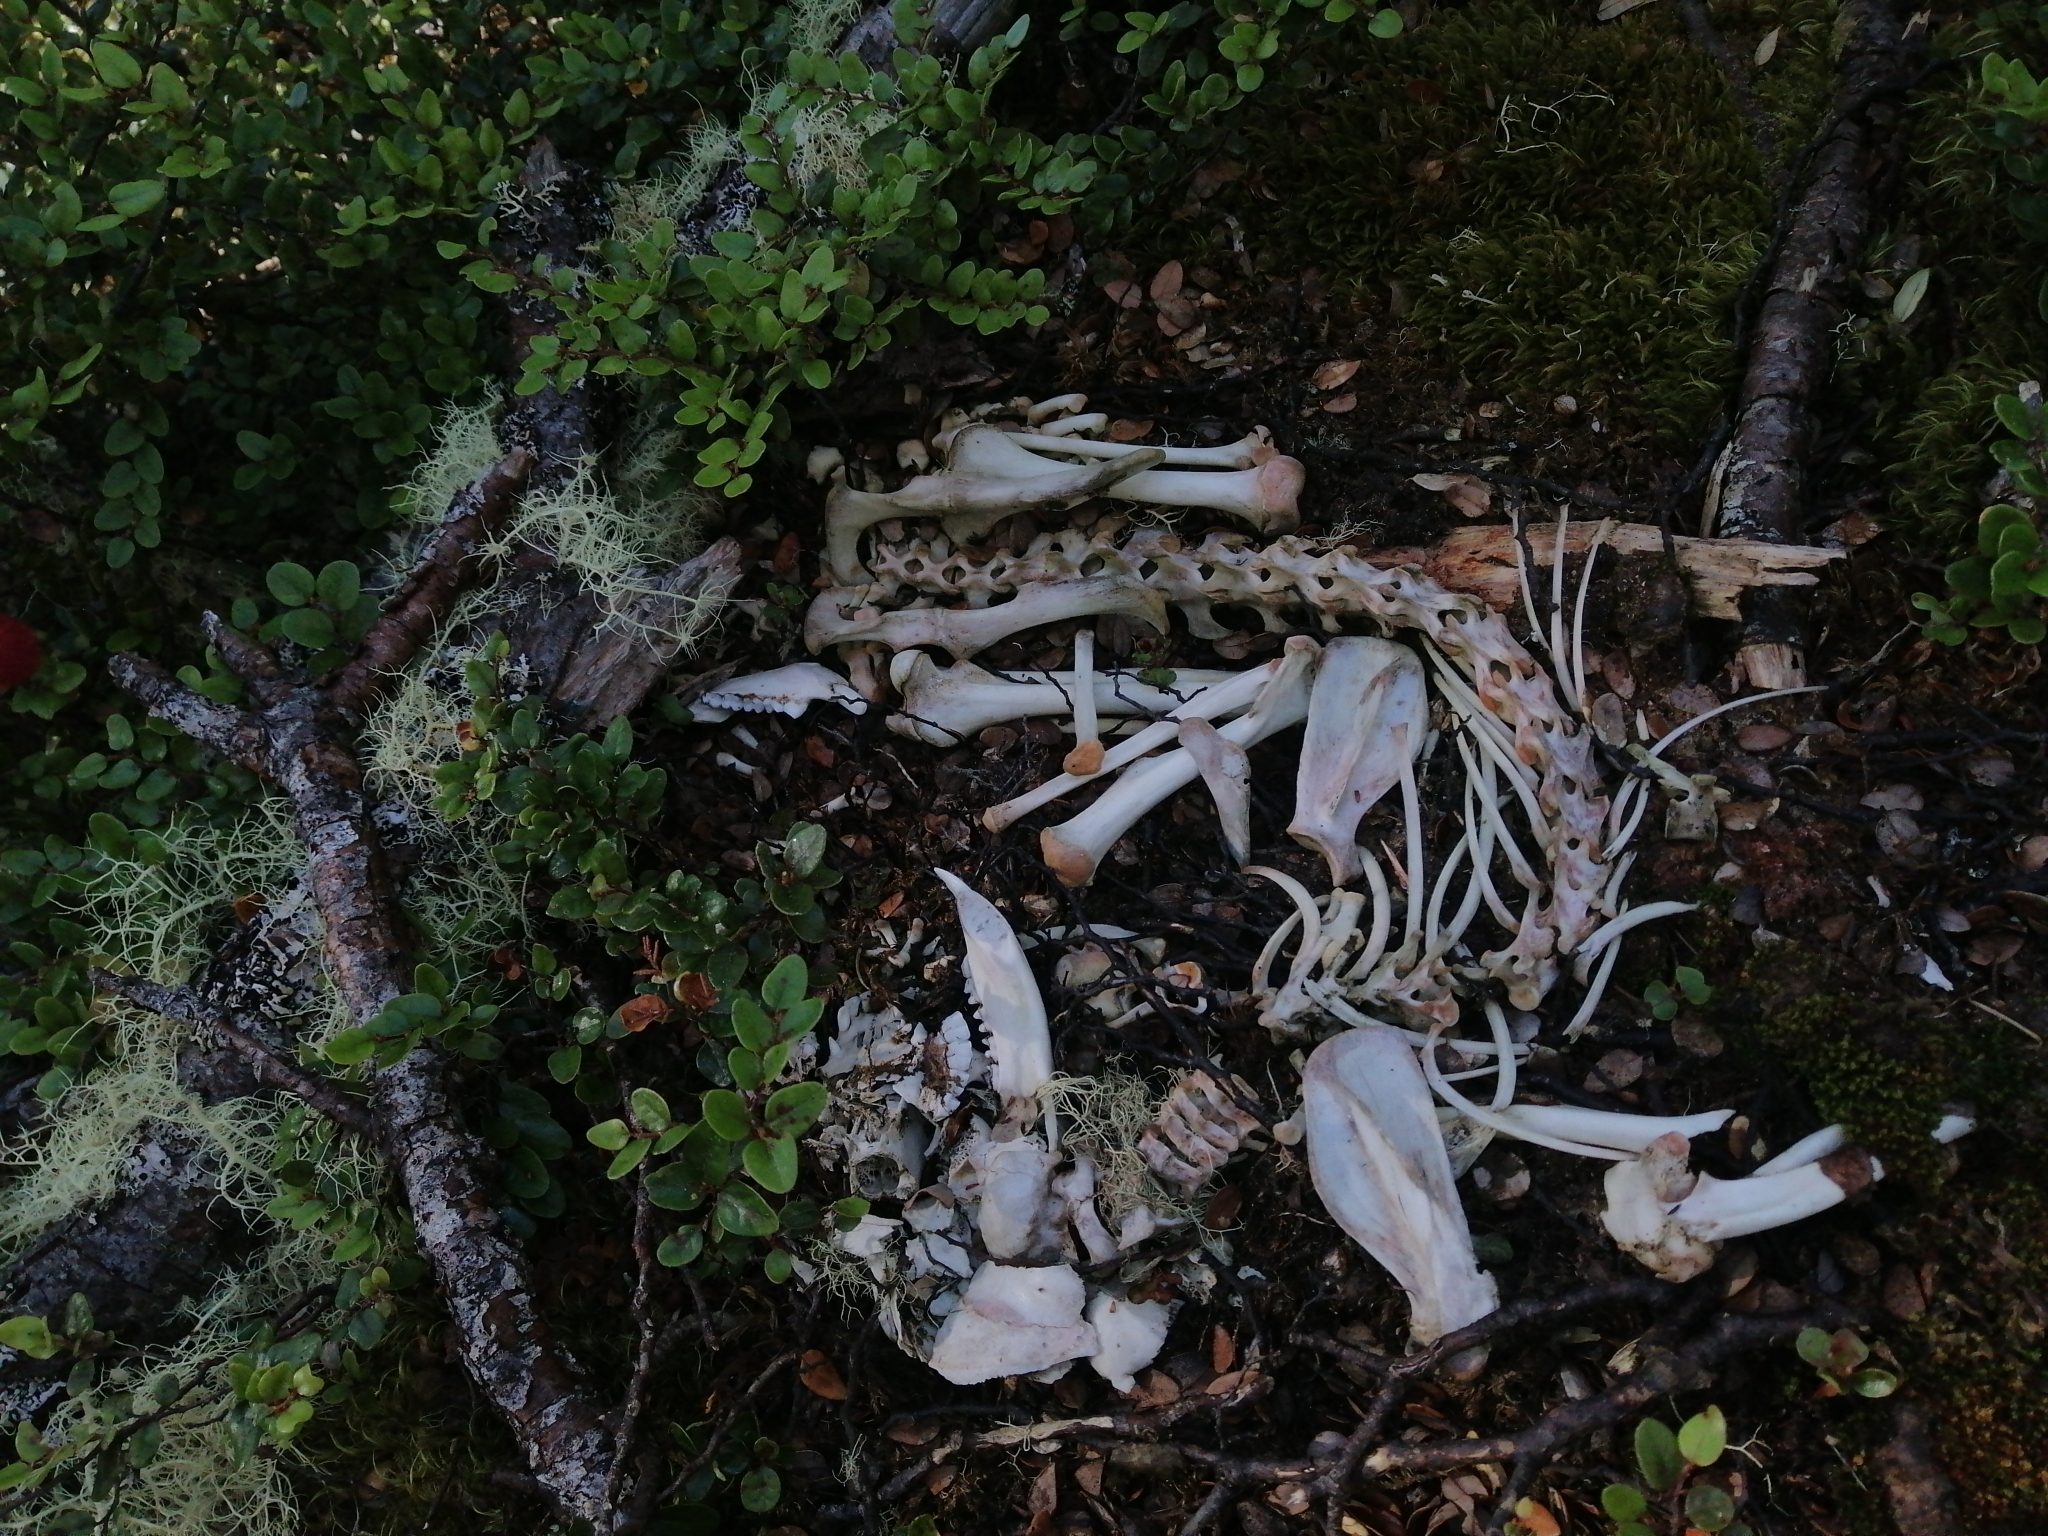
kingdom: Animalia
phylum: Chordata
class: Mammalia
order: Diprotodontia
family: Phalangeridae
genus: Trichosurus
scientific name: Trichosurus vulpecula
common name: Common brushtail
